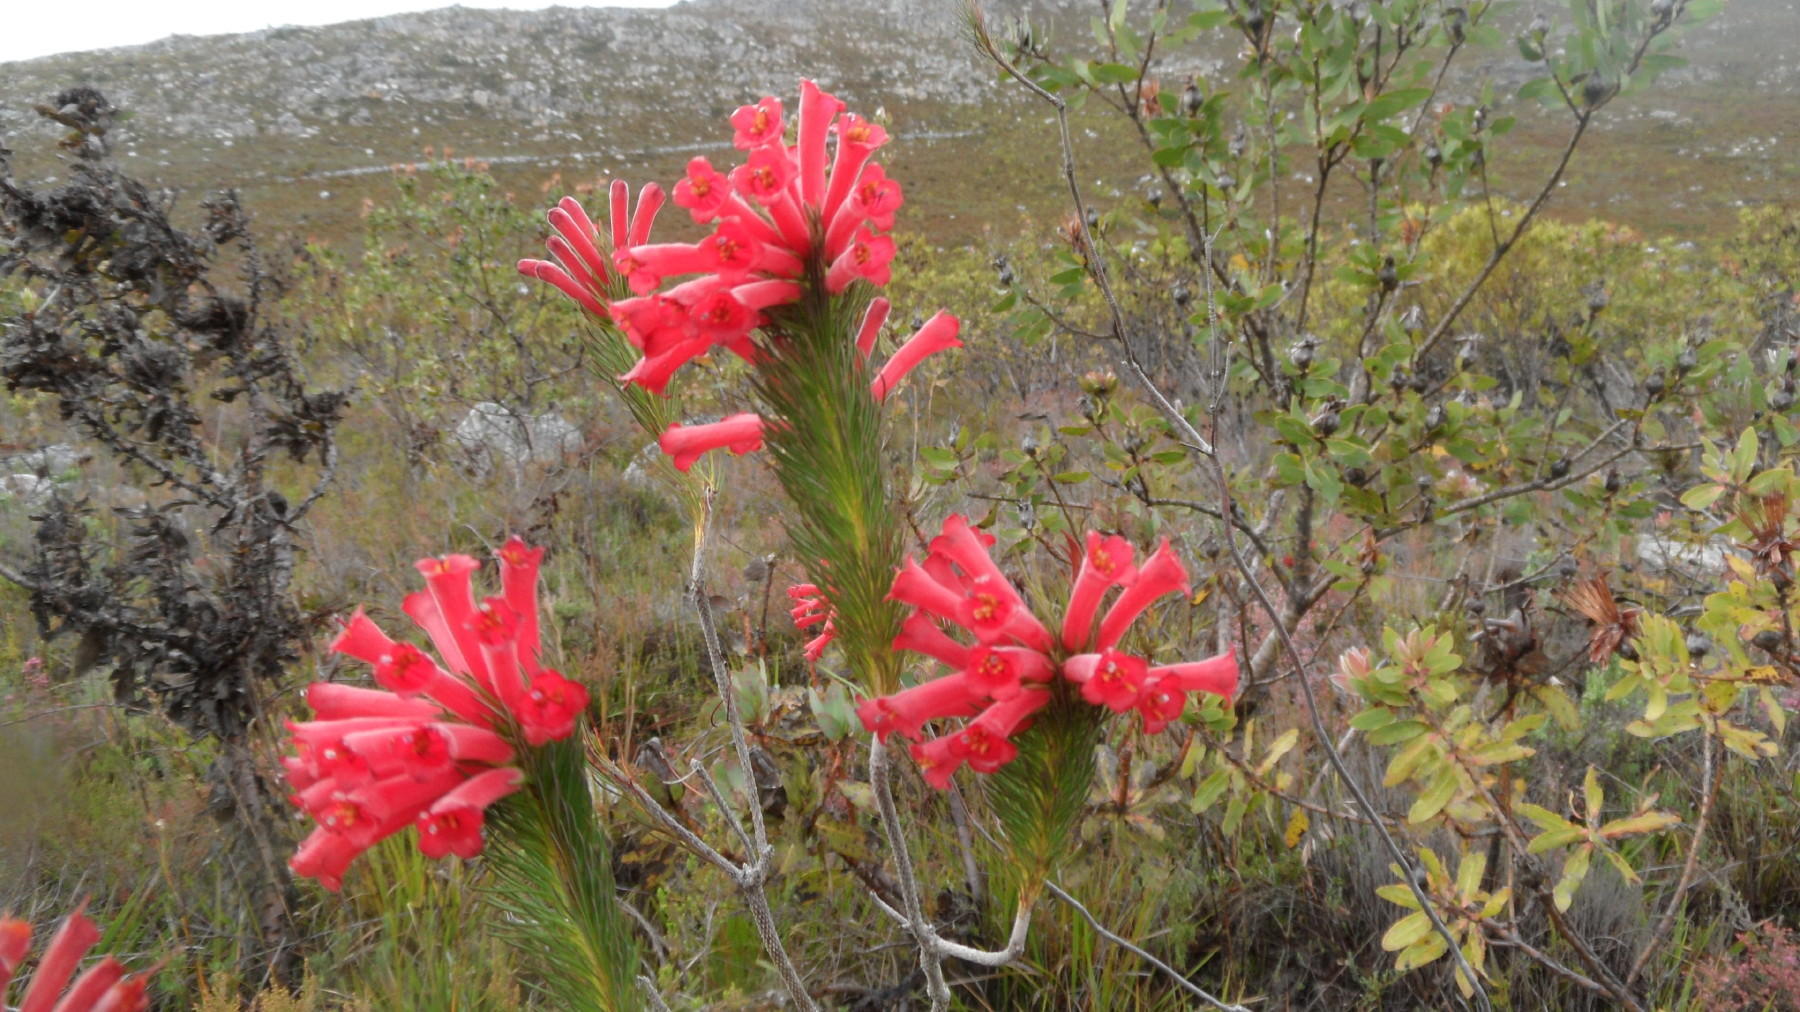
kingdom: Plantae
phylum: Tracheophyta
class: Magnoliopsida
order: Ericales
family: Ericaceae
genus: Erica
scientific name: Erica vestita
